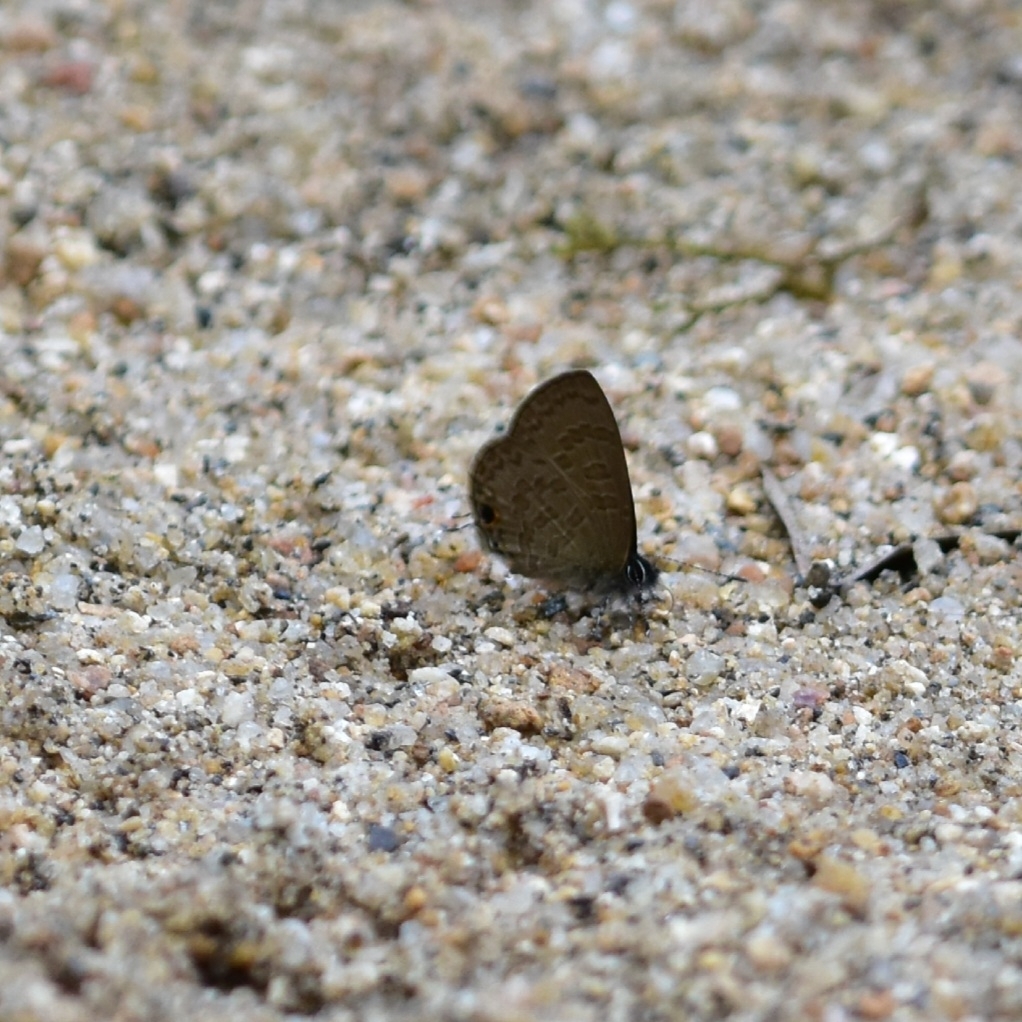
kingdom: Animalia
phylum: Arthropoda
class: Insecta
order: Lepidoptera
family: Lycaenidae
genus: Prosotas
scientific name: Prosotas nora
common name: Common line blue
